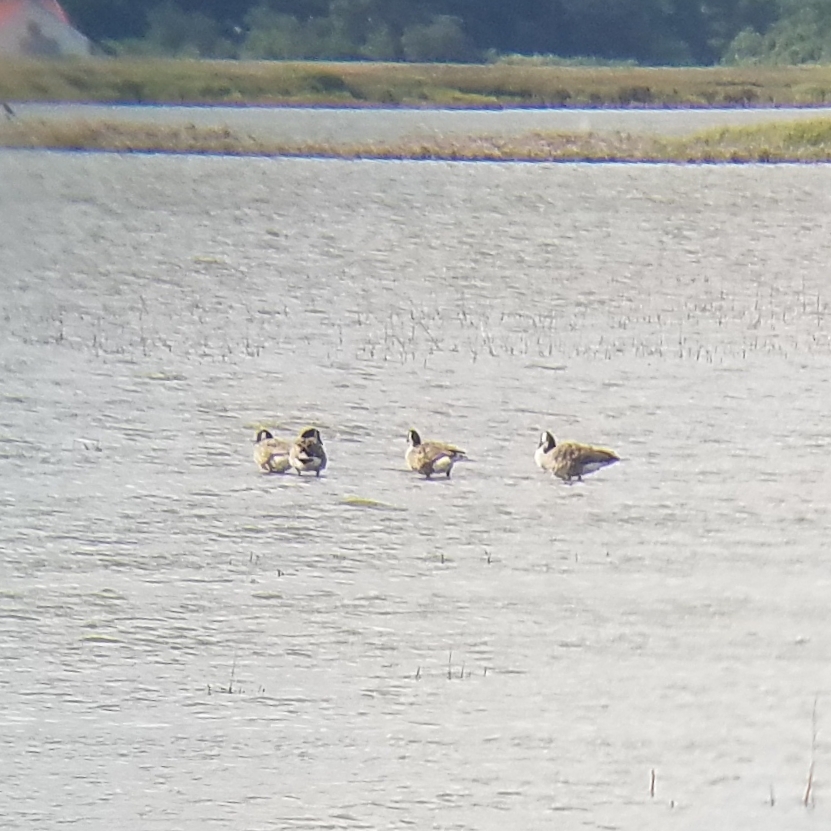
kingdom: Animalia
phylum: Chordata
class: Aves
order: Anseriformes
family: Anatidae
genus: Branta
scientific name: Branta canadensis
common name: Canada goose
